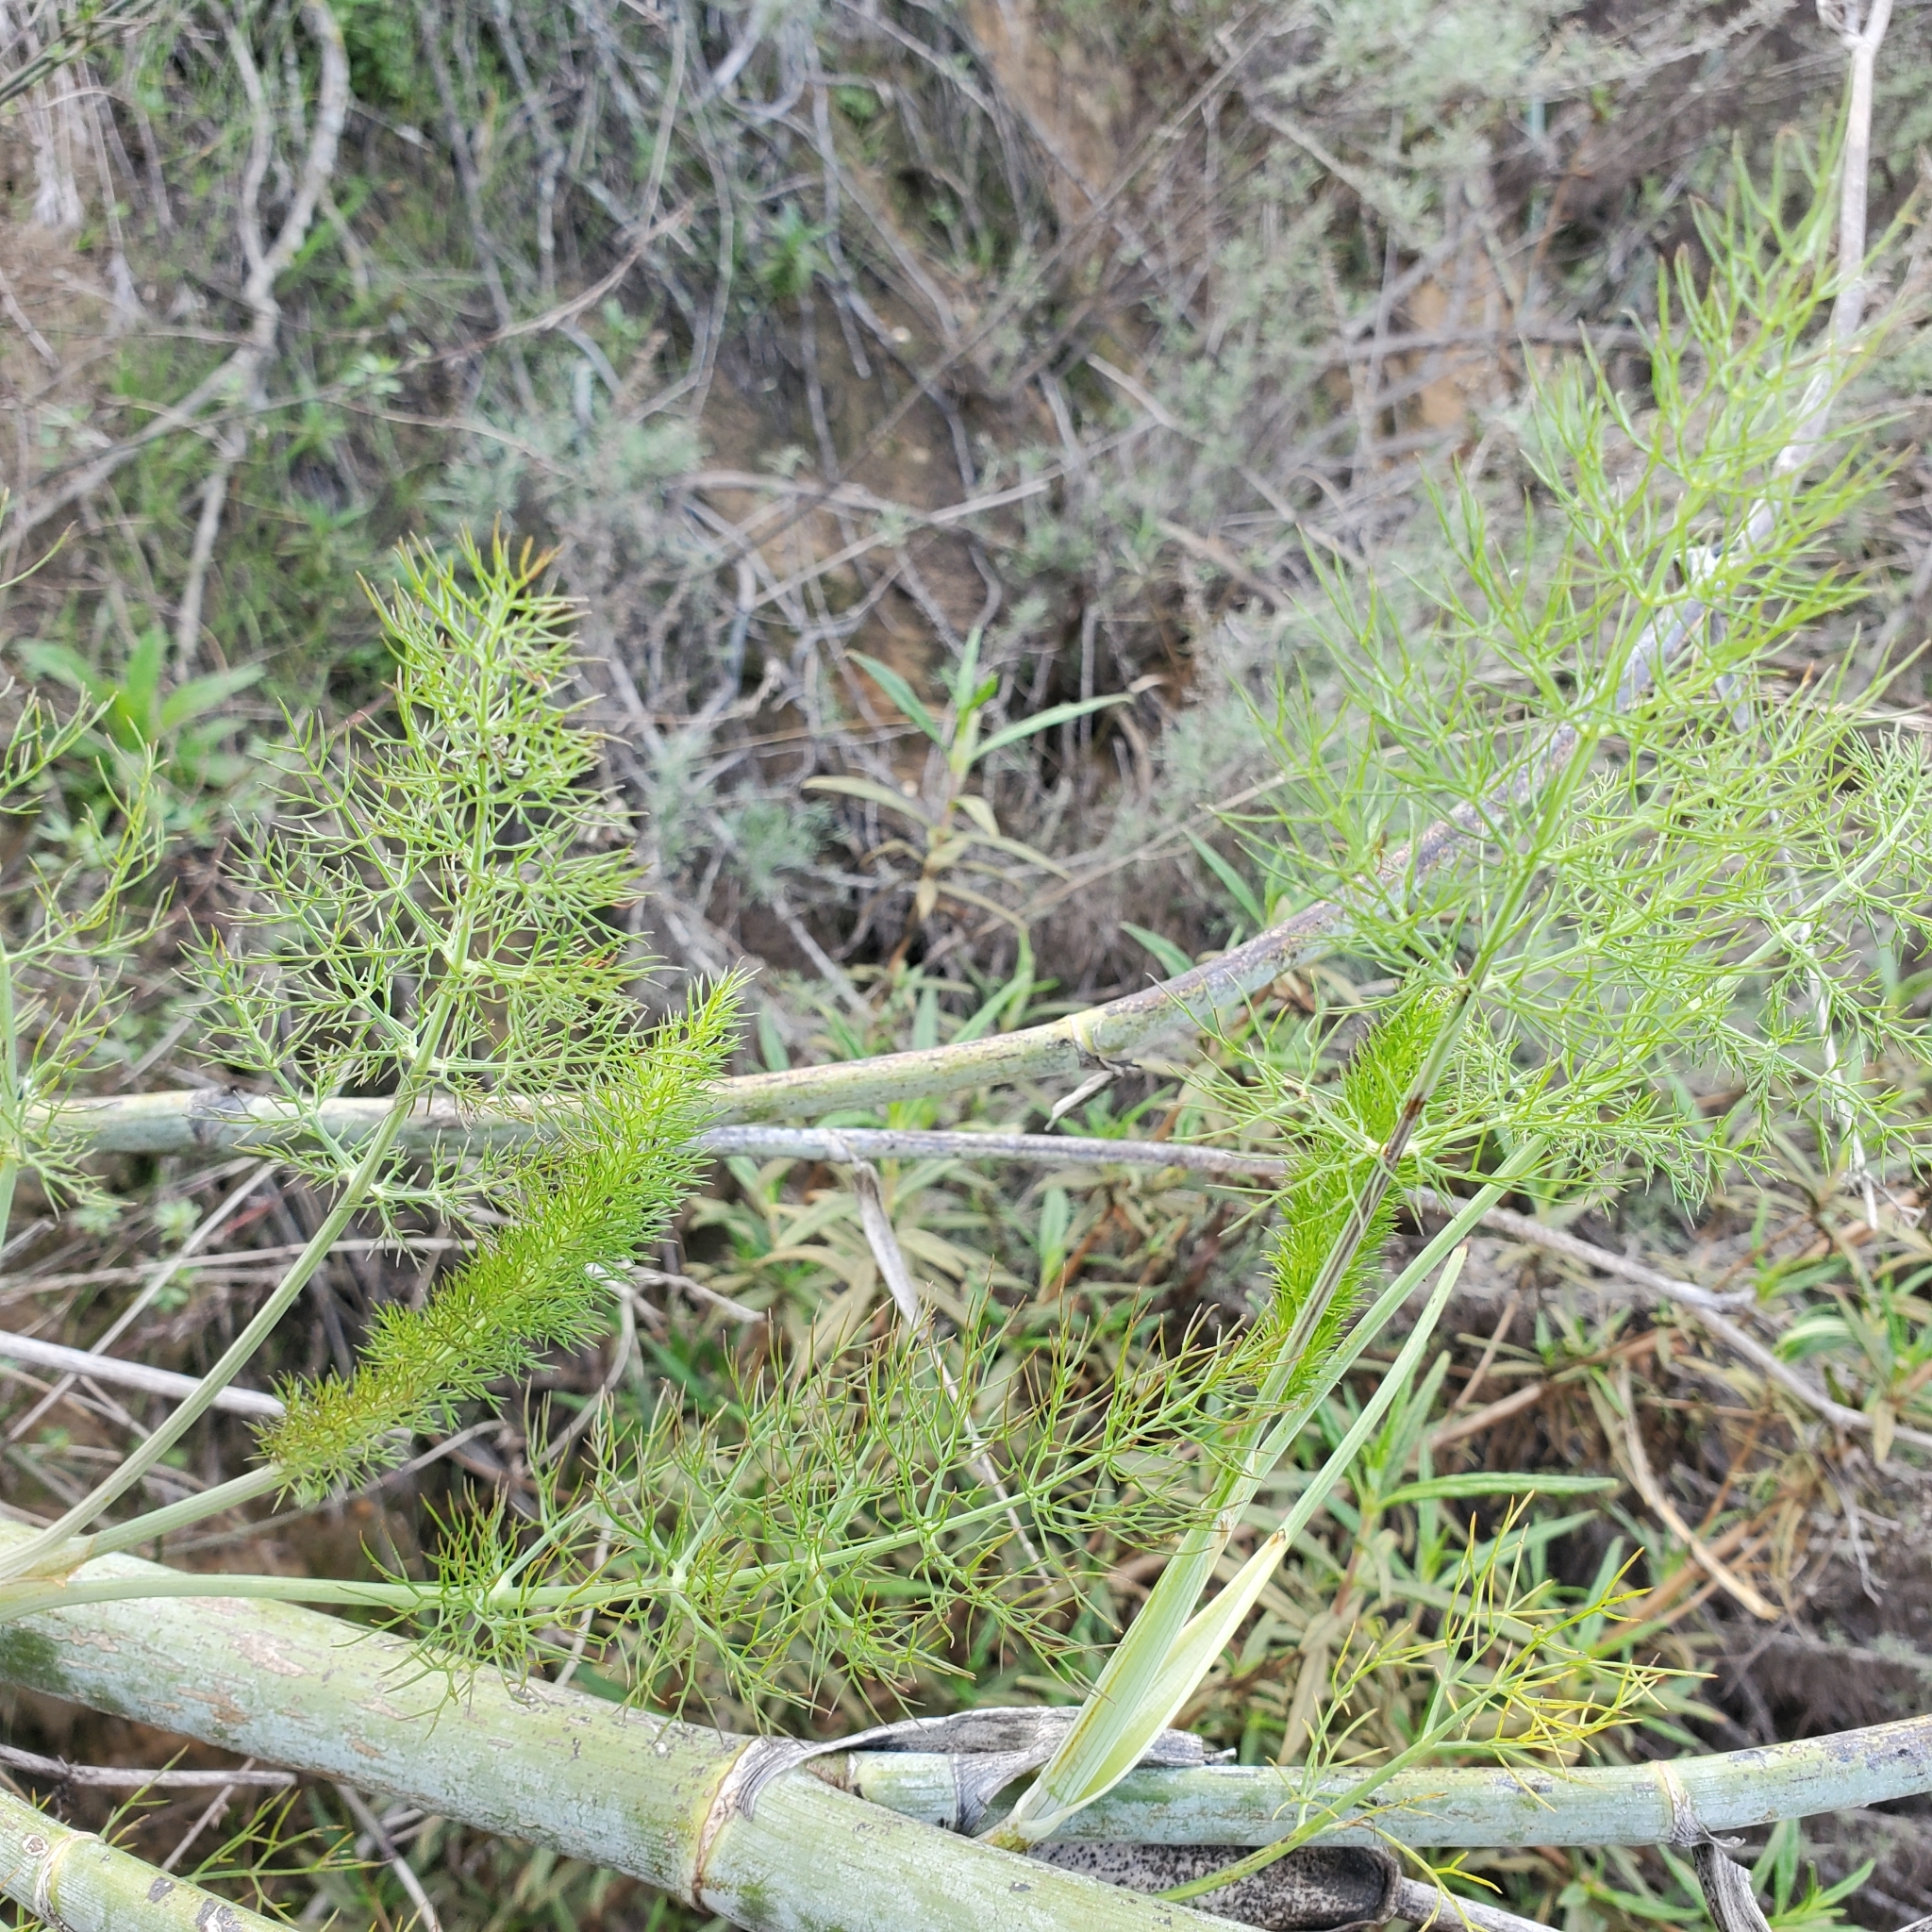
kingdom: Plantae
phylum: Tracheophyta
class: Magnoliopsida
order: Apiales
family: Apiaceae
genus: Foeniculum
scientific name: Foeniculum vulgare
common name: Fennel
